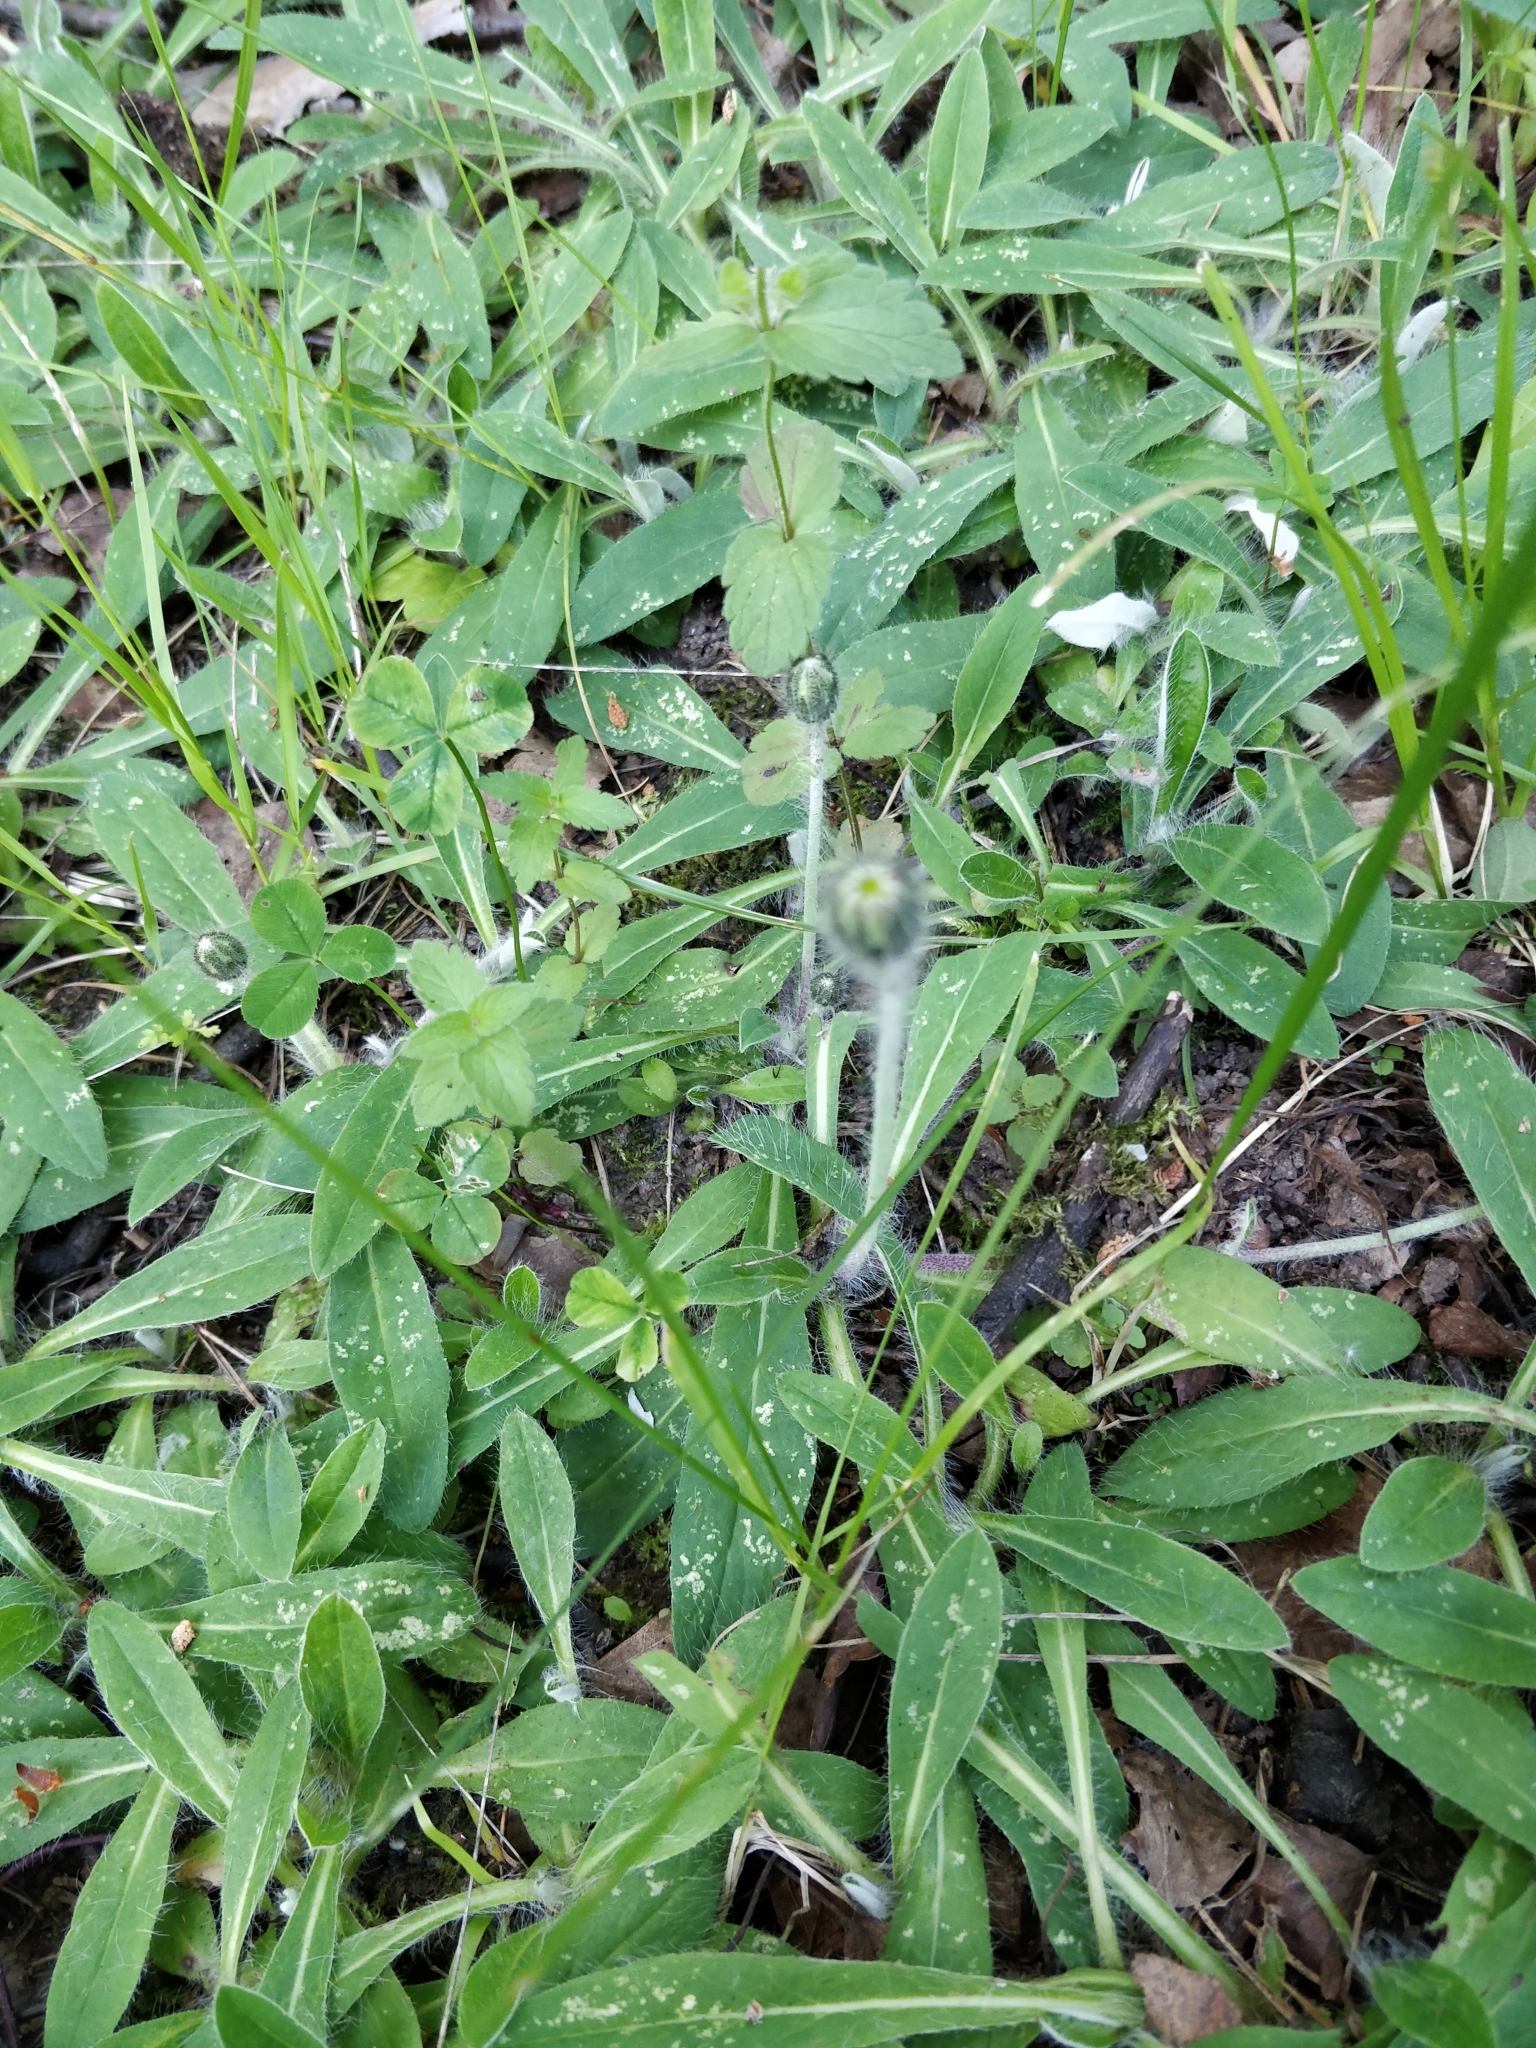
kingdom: Plantae
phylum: Tracheophyta
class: Magnoliopsida
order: Asterales
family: Asteraceae
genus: Pilosella
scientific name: Pilosella officinarum
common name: Mouse-ear hawkweed
